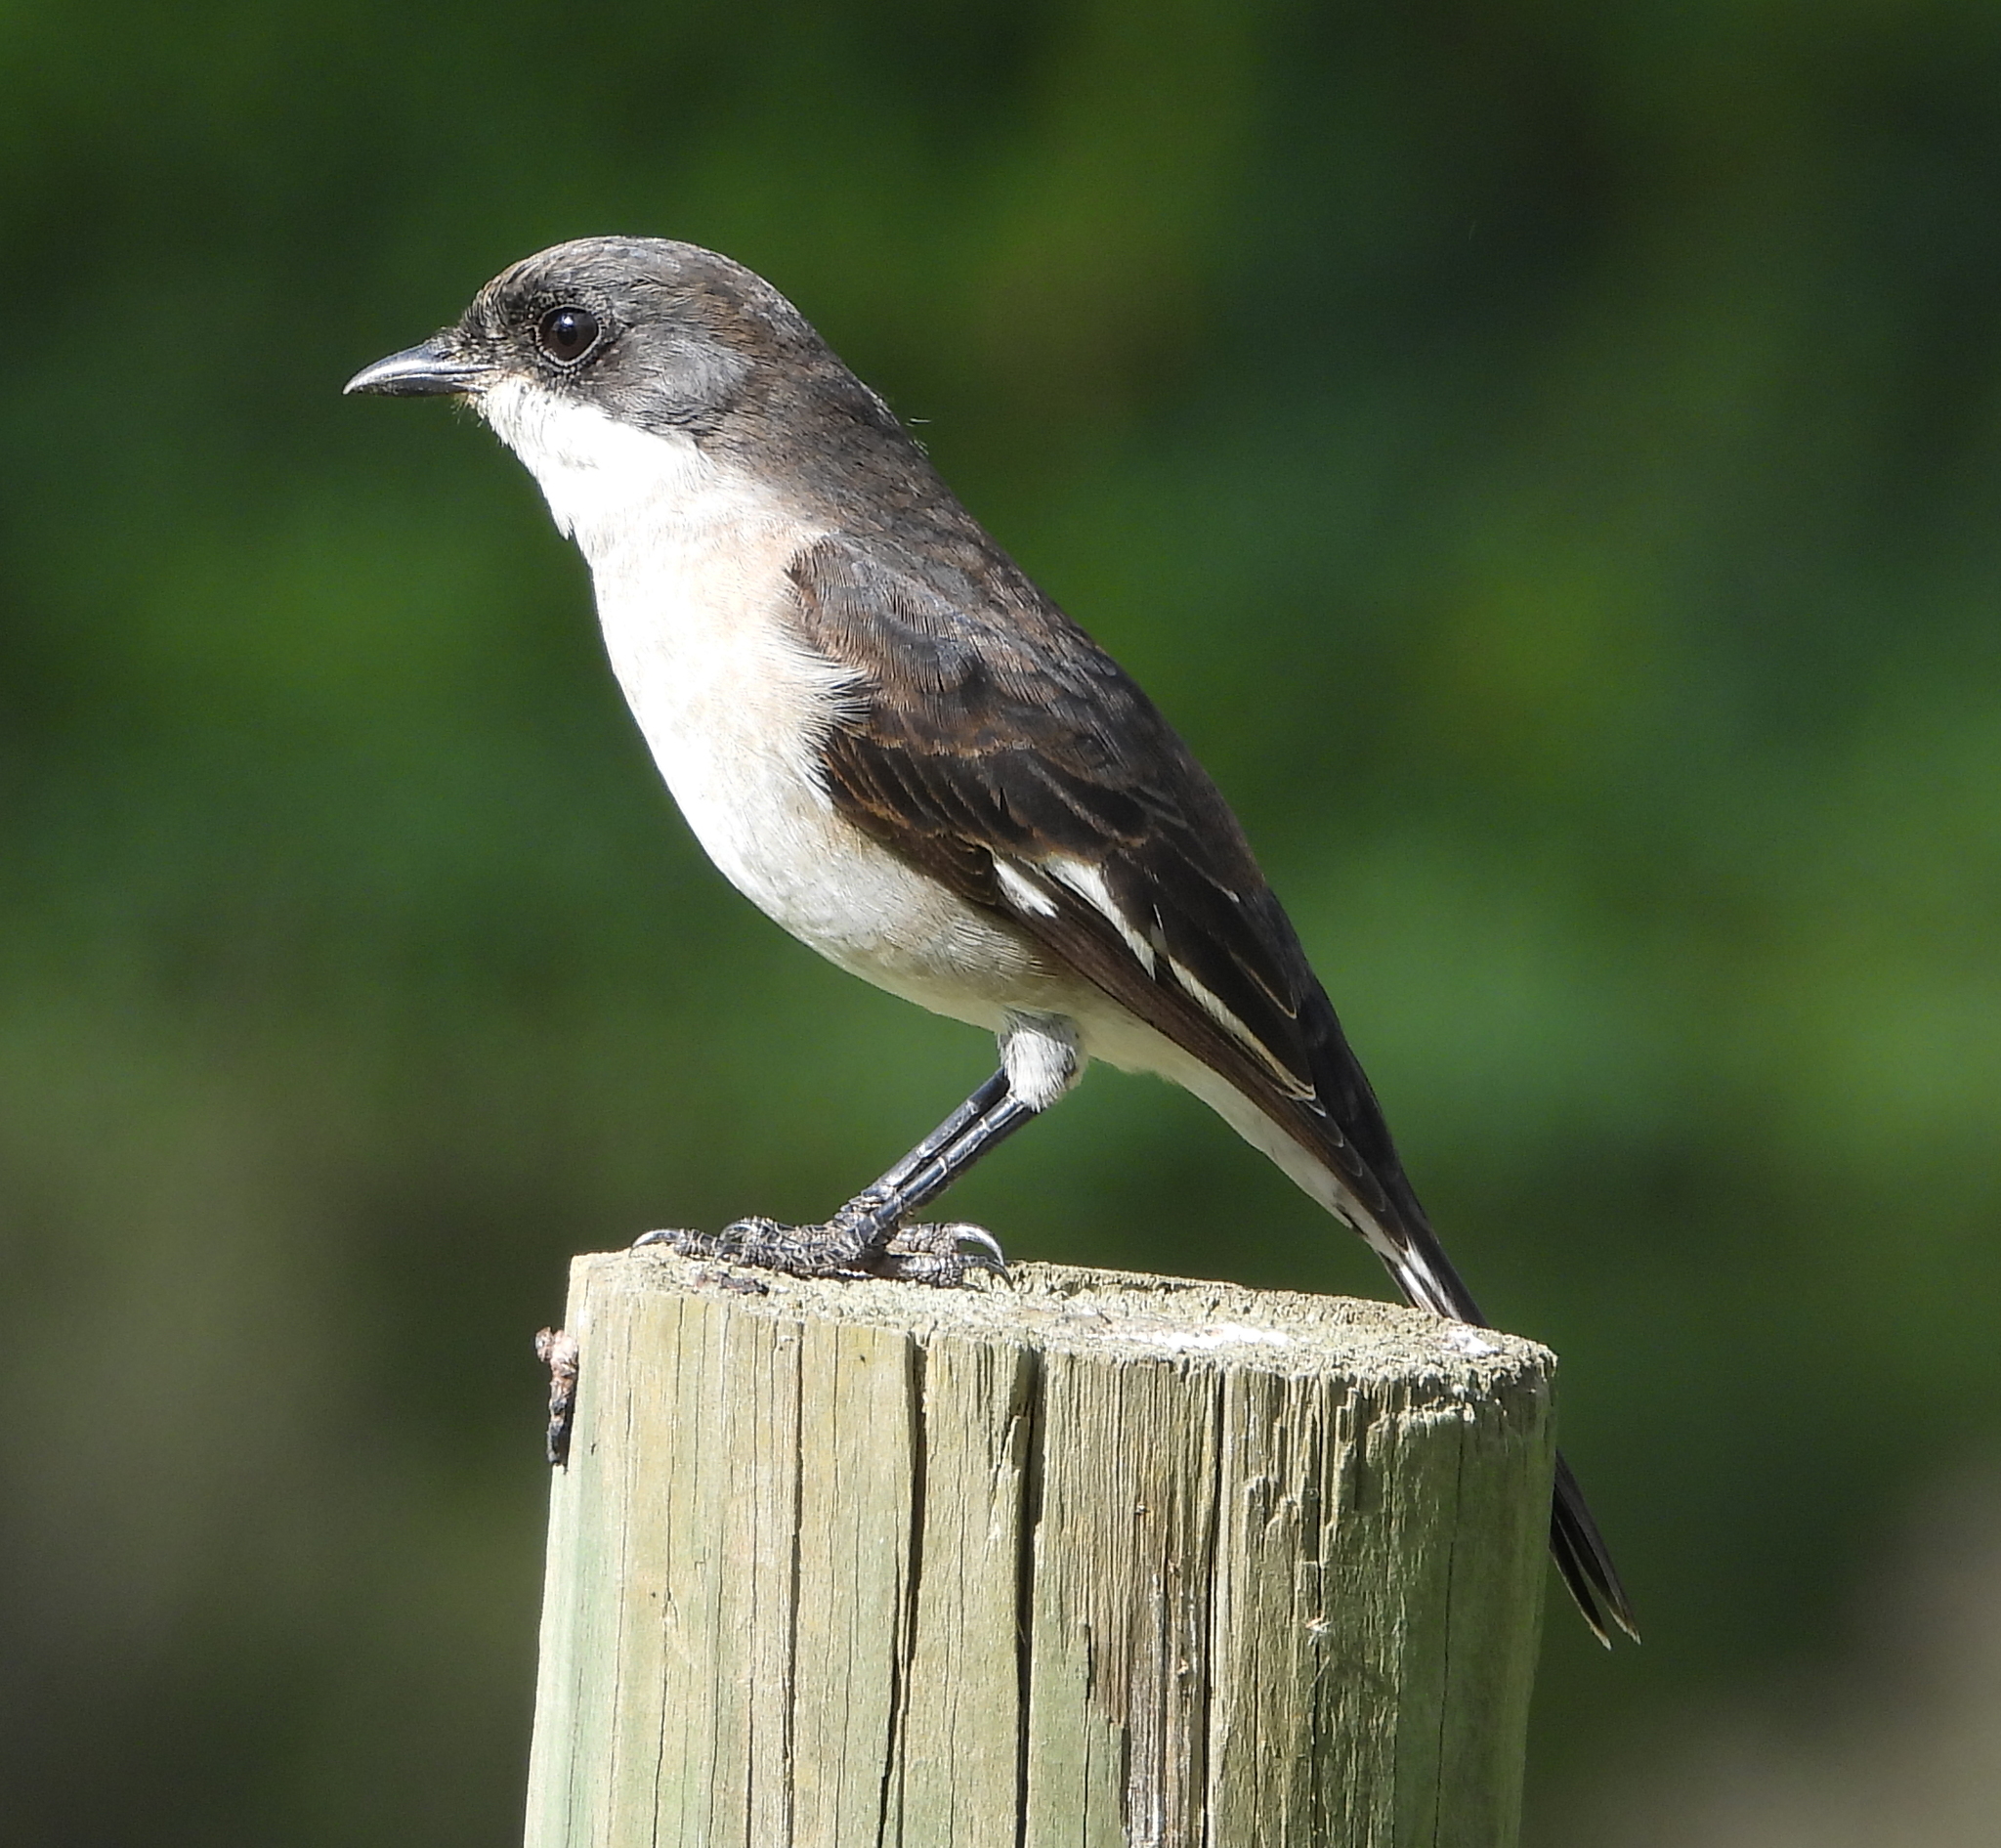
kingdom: Animalia
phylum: Chordata
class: Aves
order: Passeriformes
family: Muscicapidae
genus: Sigelus
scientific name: Sigelus silens
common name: Fiscal flycatcher
